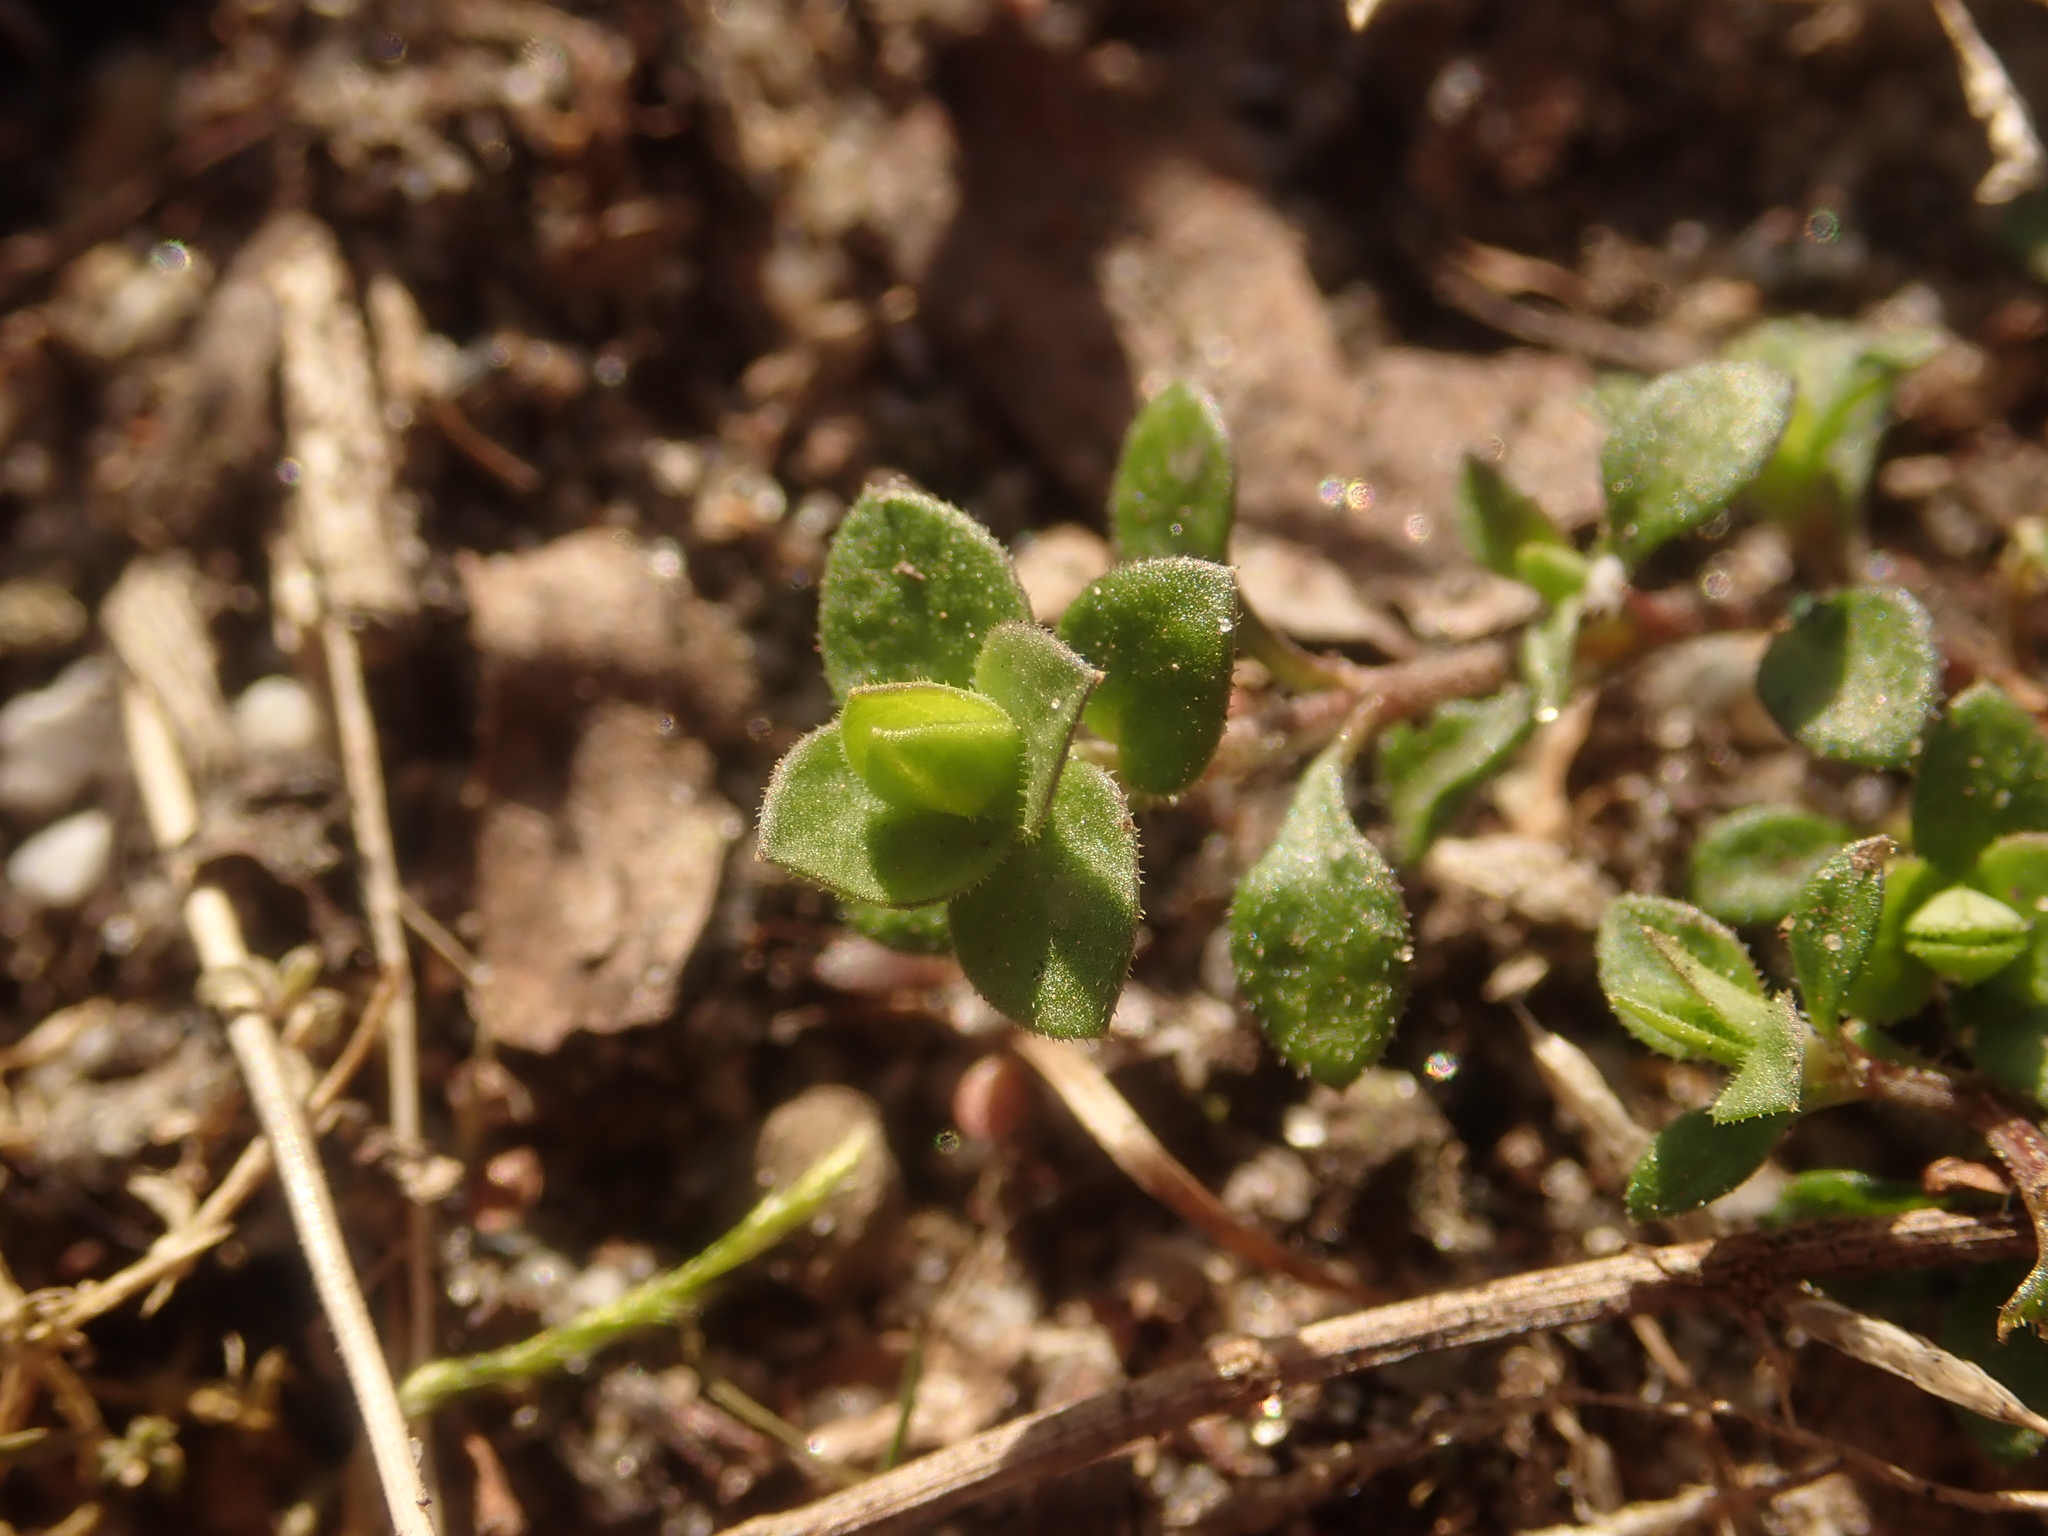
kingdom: Plantae
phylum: Tracheophyta
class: Magnoliopsida
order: Caryophyllales
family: Caryophyllaceae
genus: Arenaria
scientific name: Arenaria serpyllifolia
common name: Thyme-leaved sandwort
